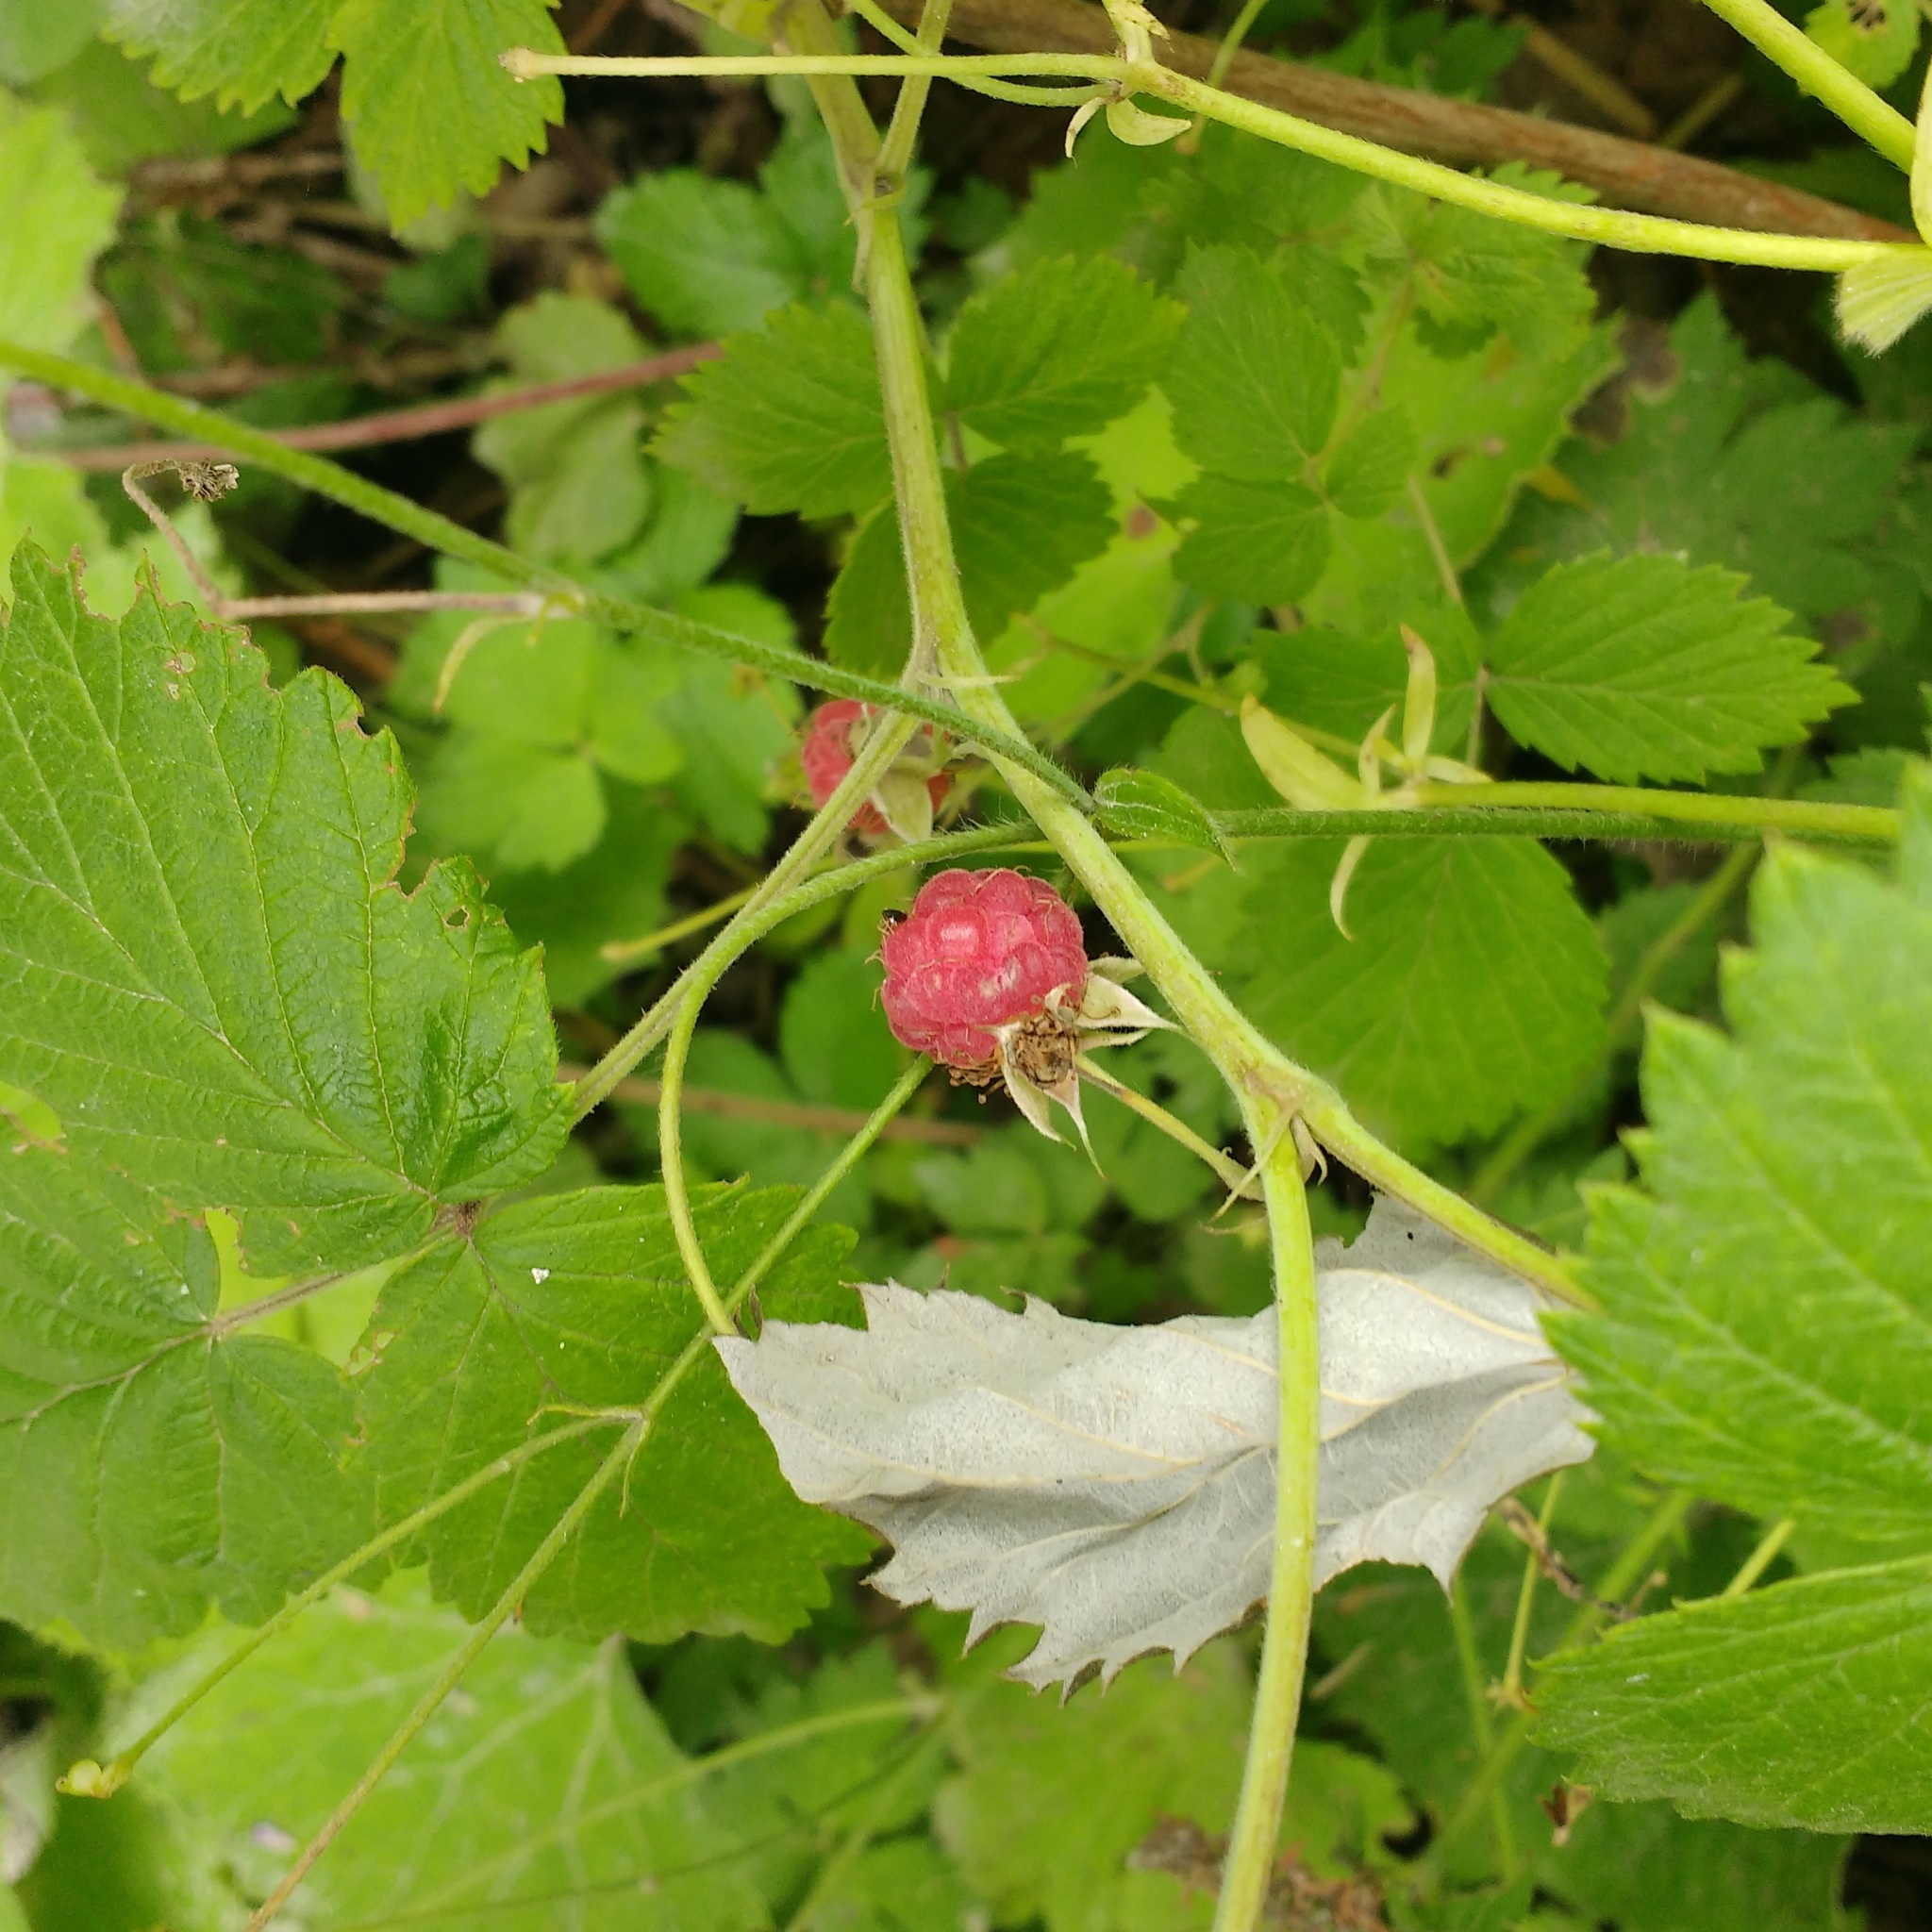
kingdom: Plantae
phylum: Tracheophyta
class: Magnoliopsida
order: Rosales
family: Rosaceae
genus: Rubus
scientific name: Rubus idaeus
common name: Raspberry
